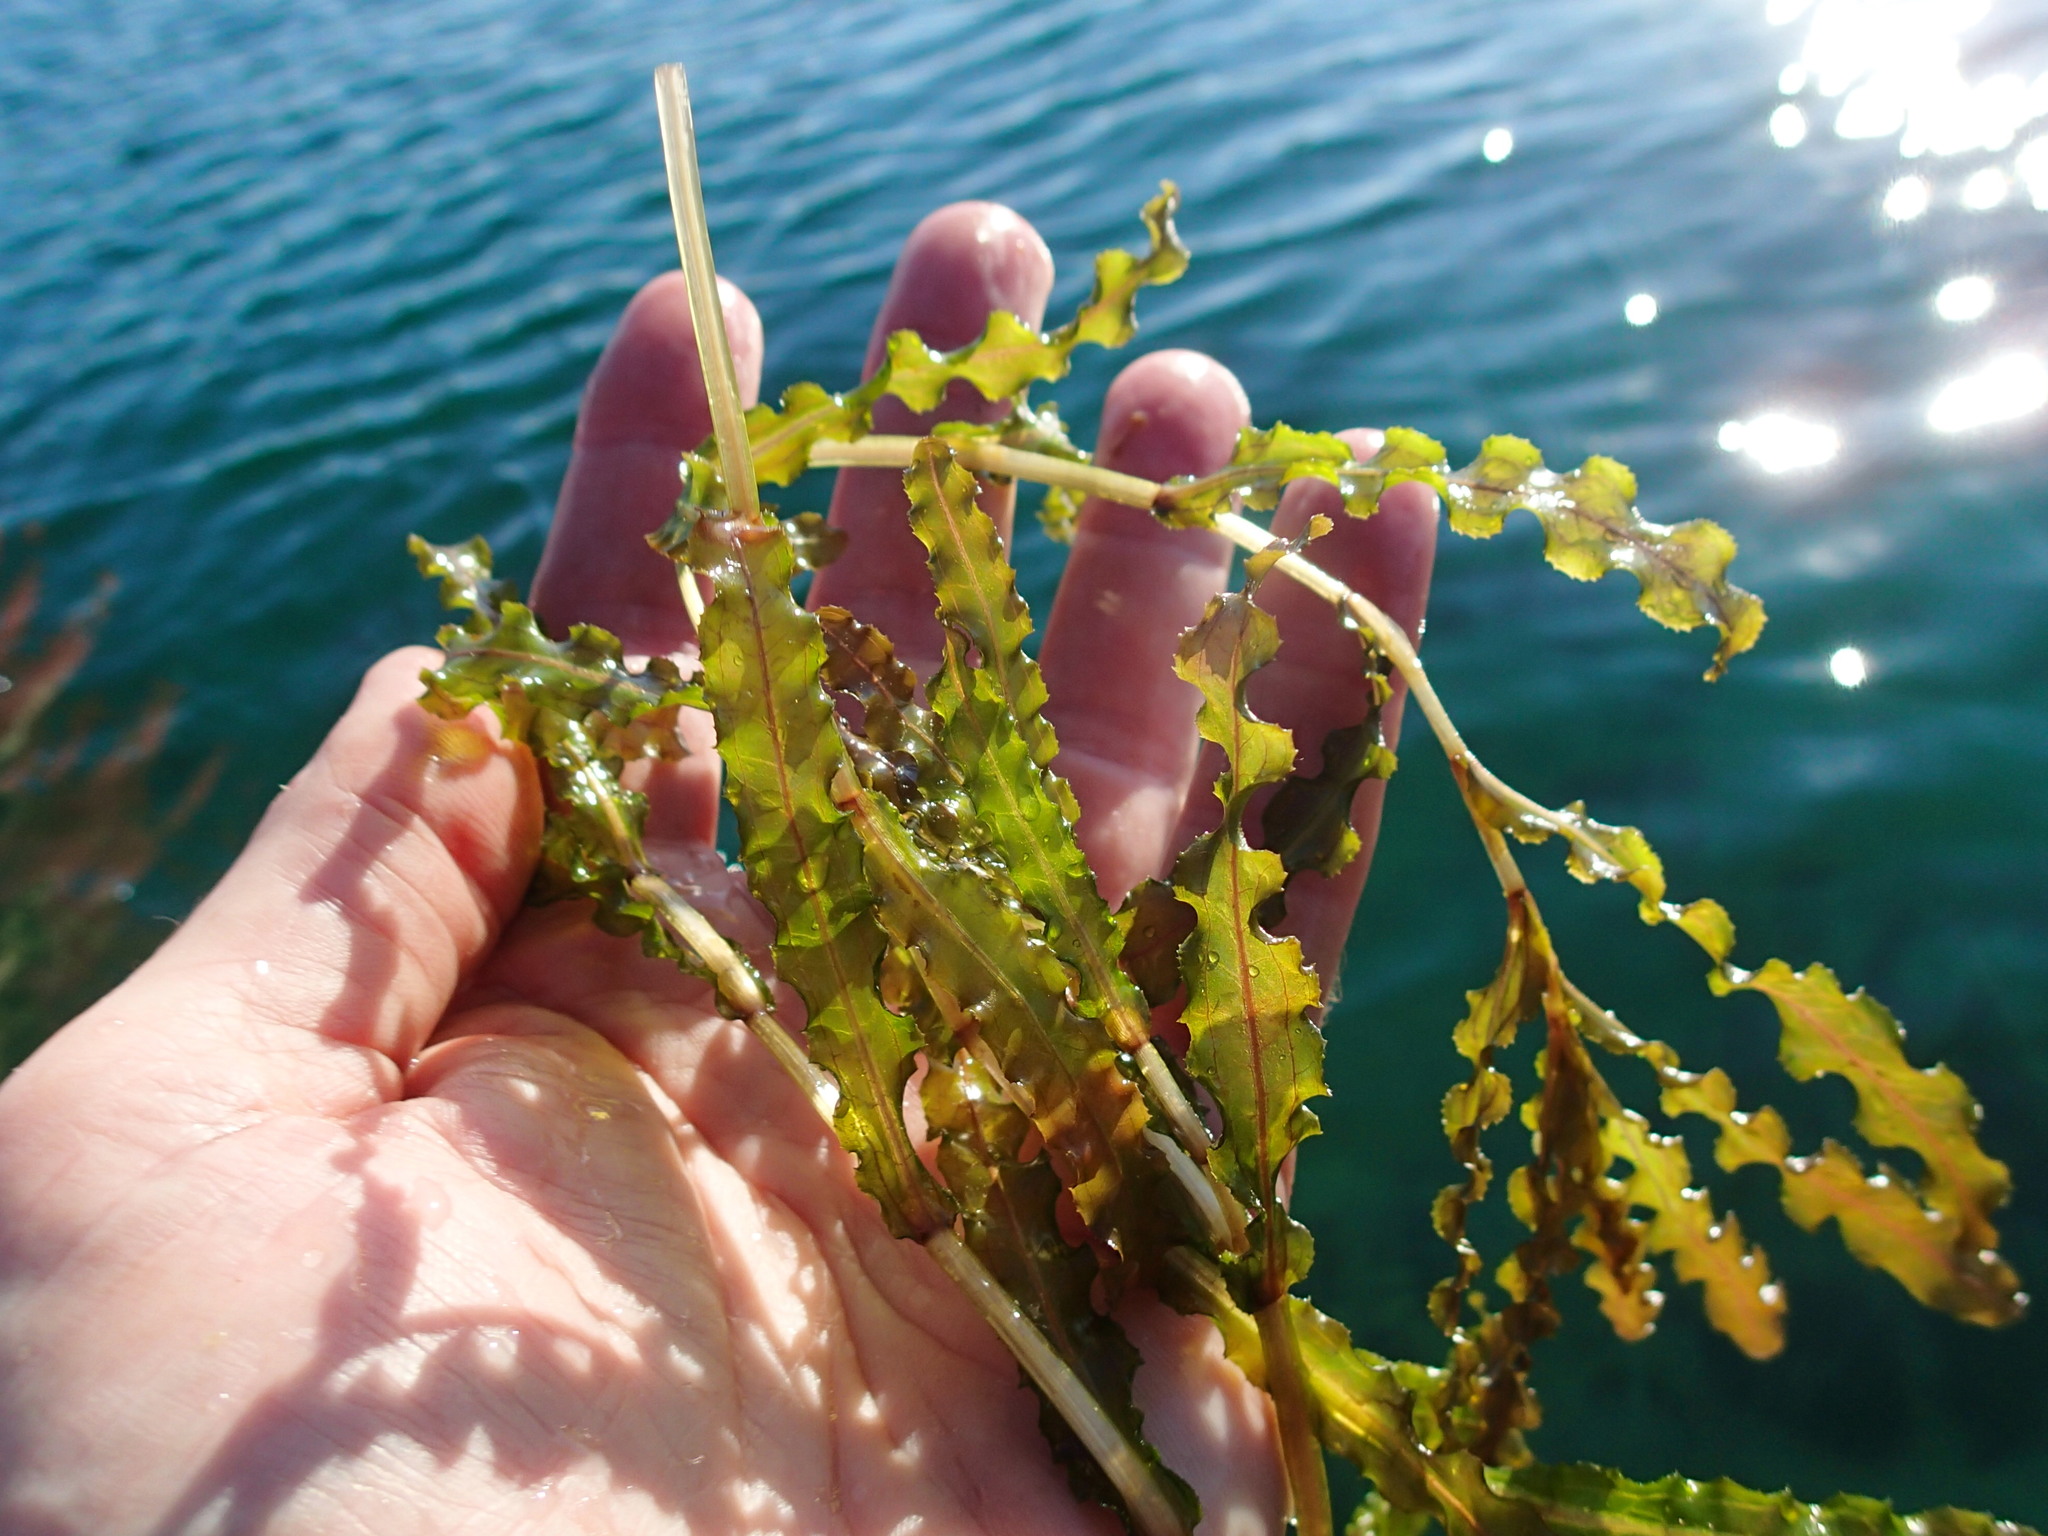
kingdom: Plantae
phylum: Tracheophyta
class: Liliopsida
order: Alismatales
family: Potamogetonaceae
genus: Potamogeton
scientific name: Potamogeton crispus
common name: Curled pondweed
